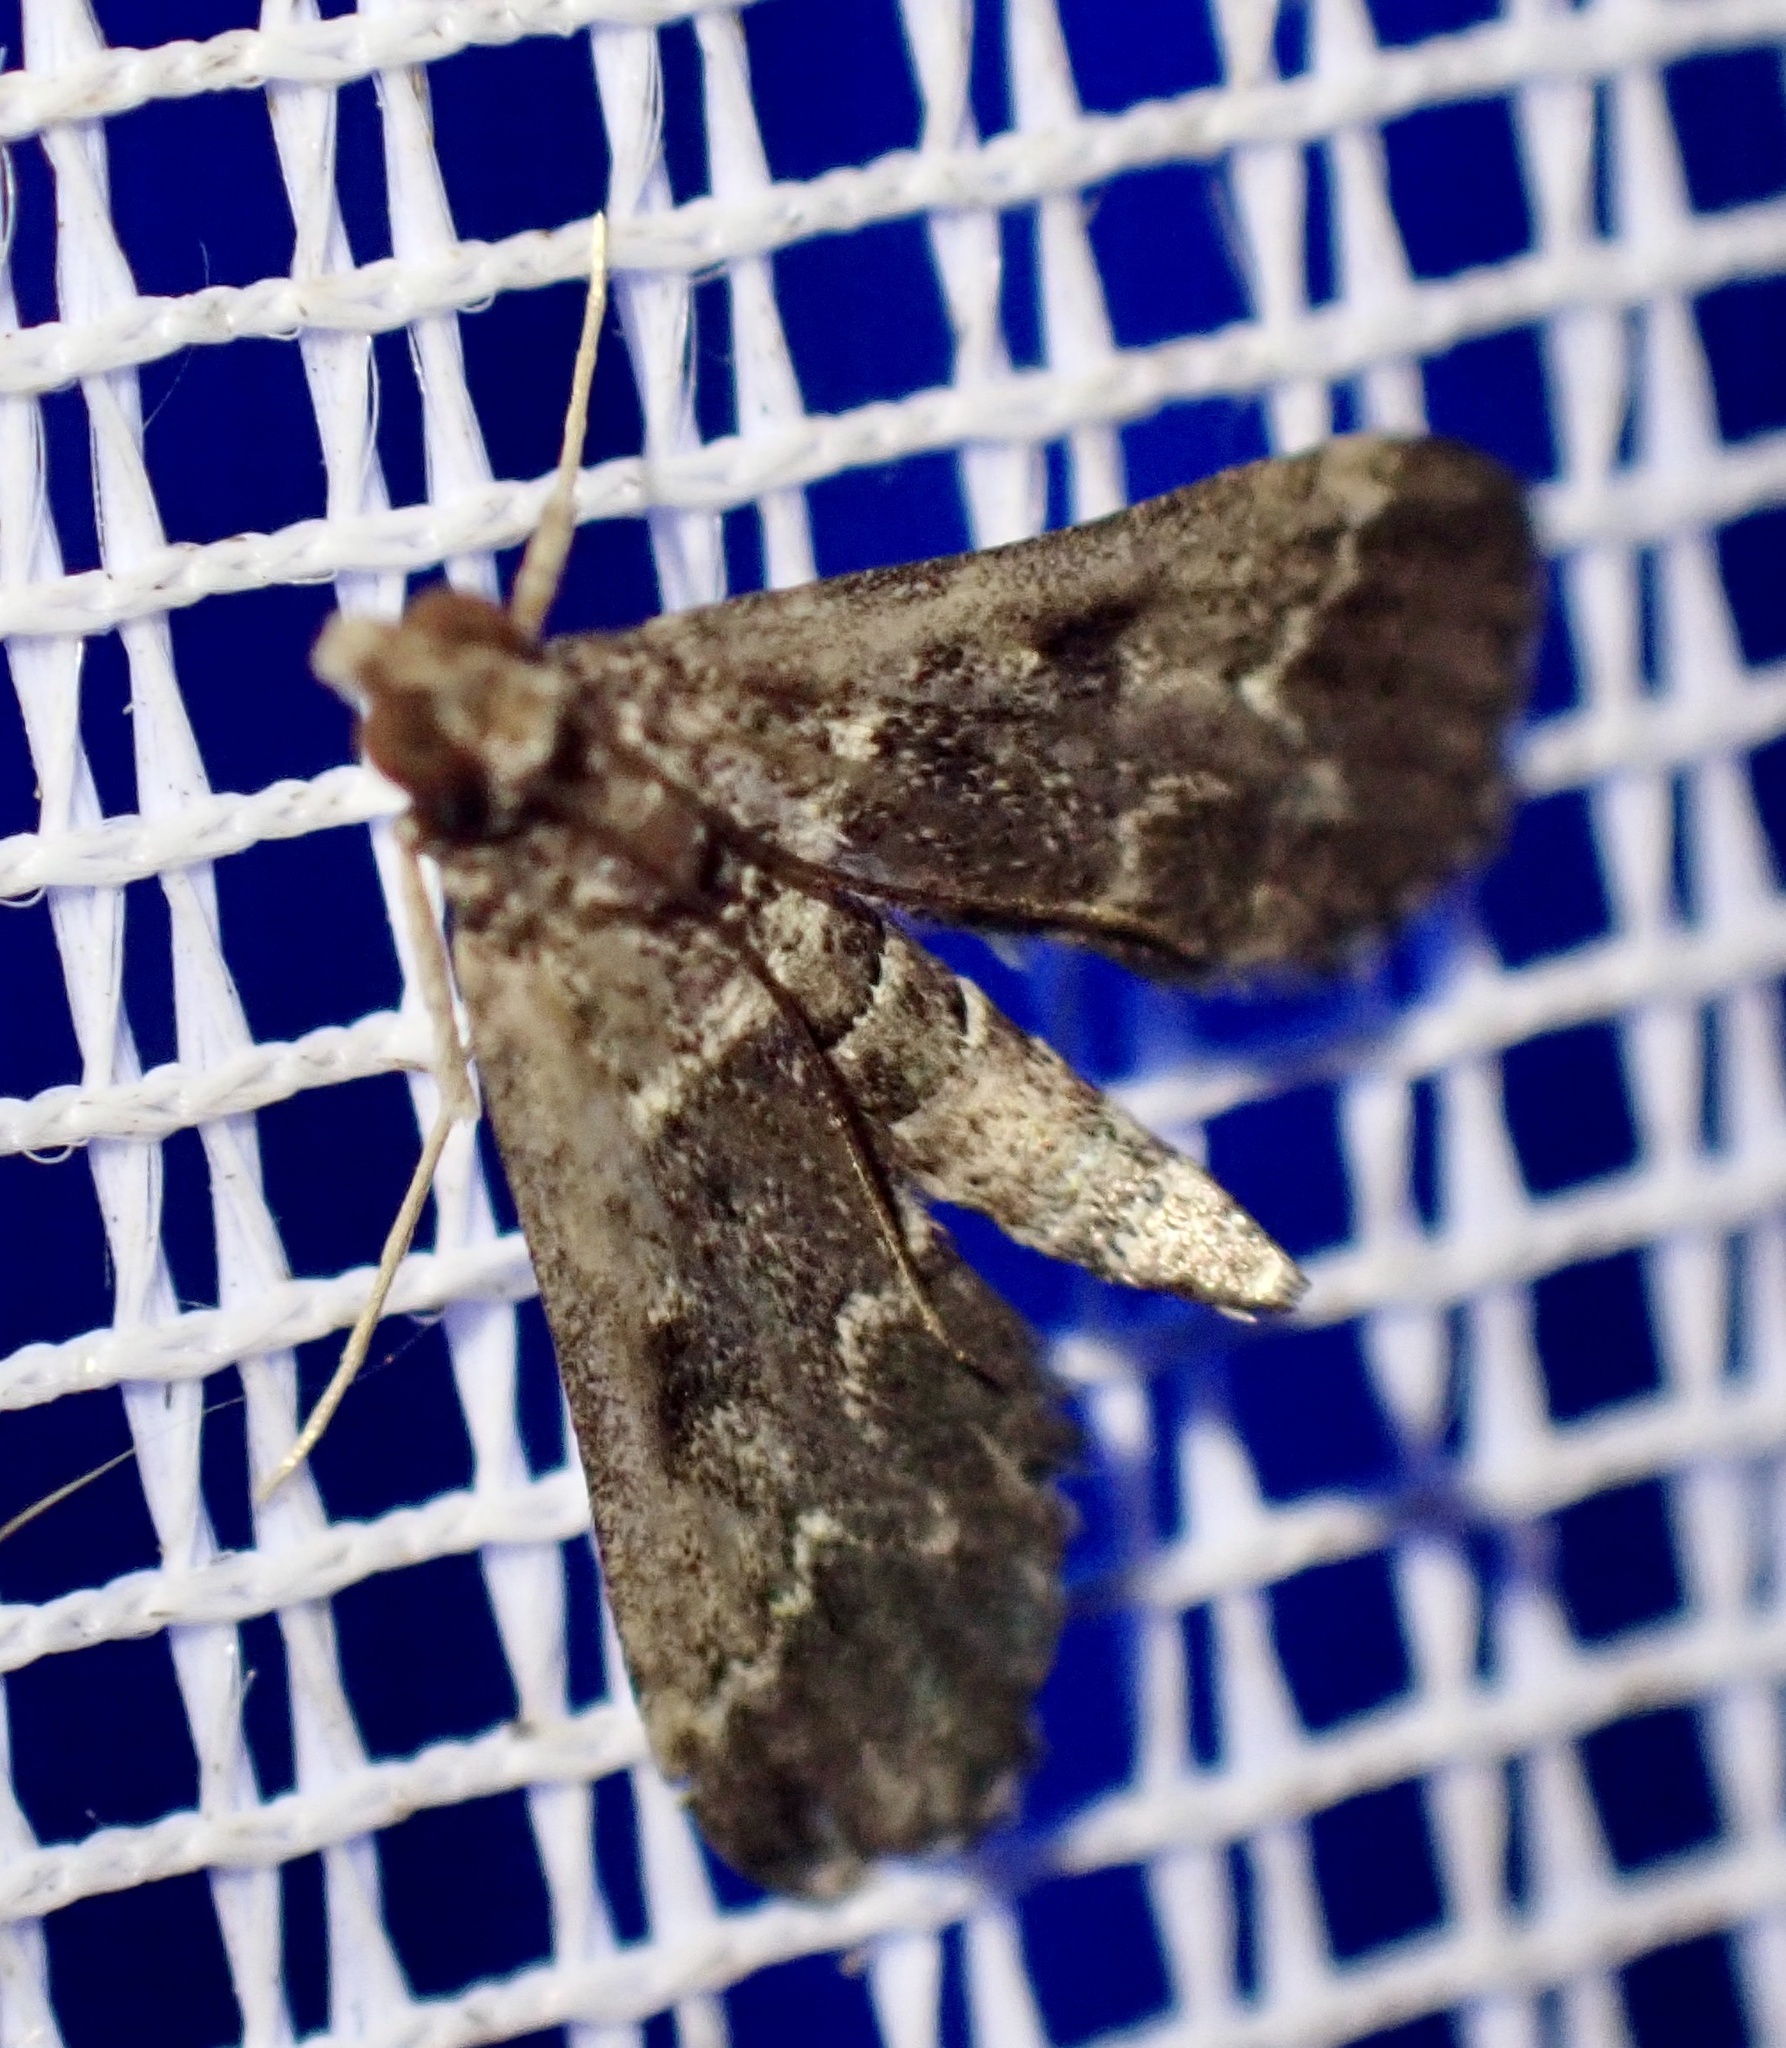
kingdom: Animalia
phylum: Arthropoda
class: Insecta
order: Lepidoptera
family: Crambidae
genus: Duponchelia
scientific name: Duponchelia fovealis
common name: Crambid moth
